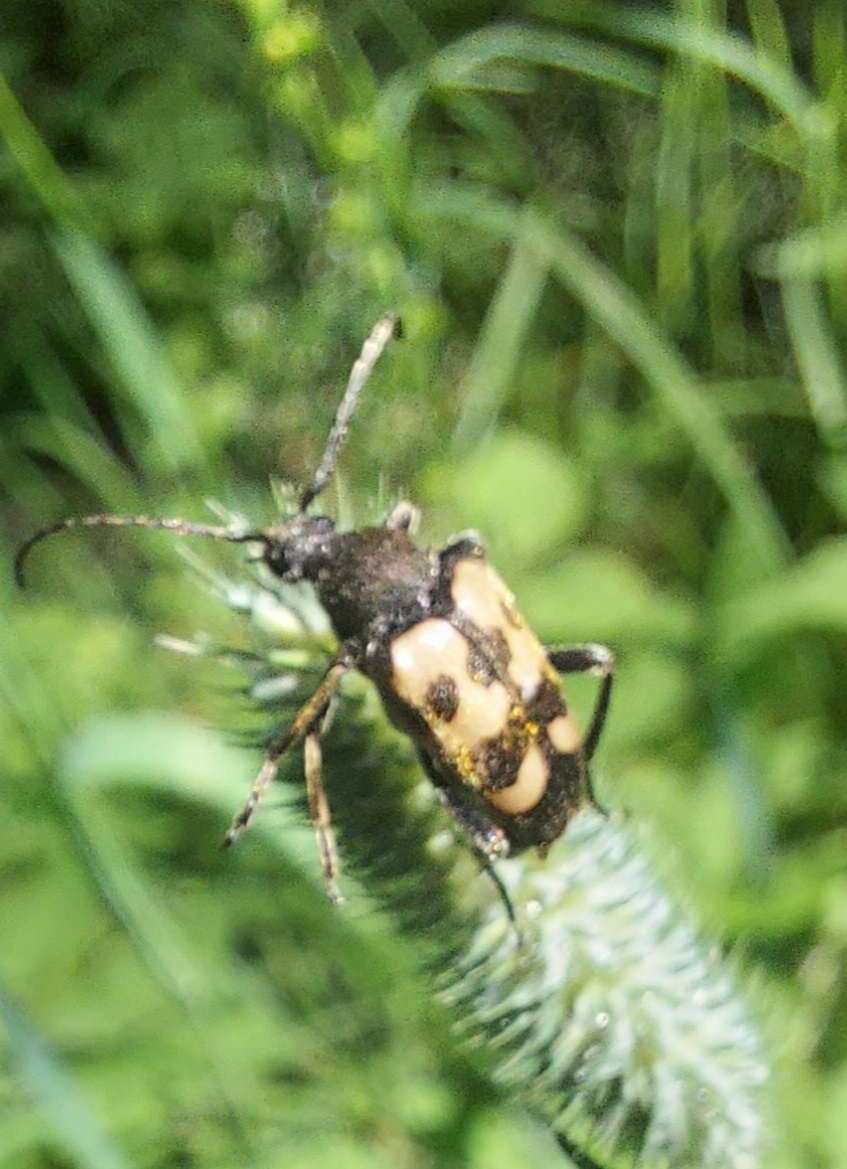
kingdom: Animalia
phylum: Arthropoda
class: Insecta
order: Coleoptera
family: Cerambycidae
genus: Pachytodes
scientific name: Pachytodes
